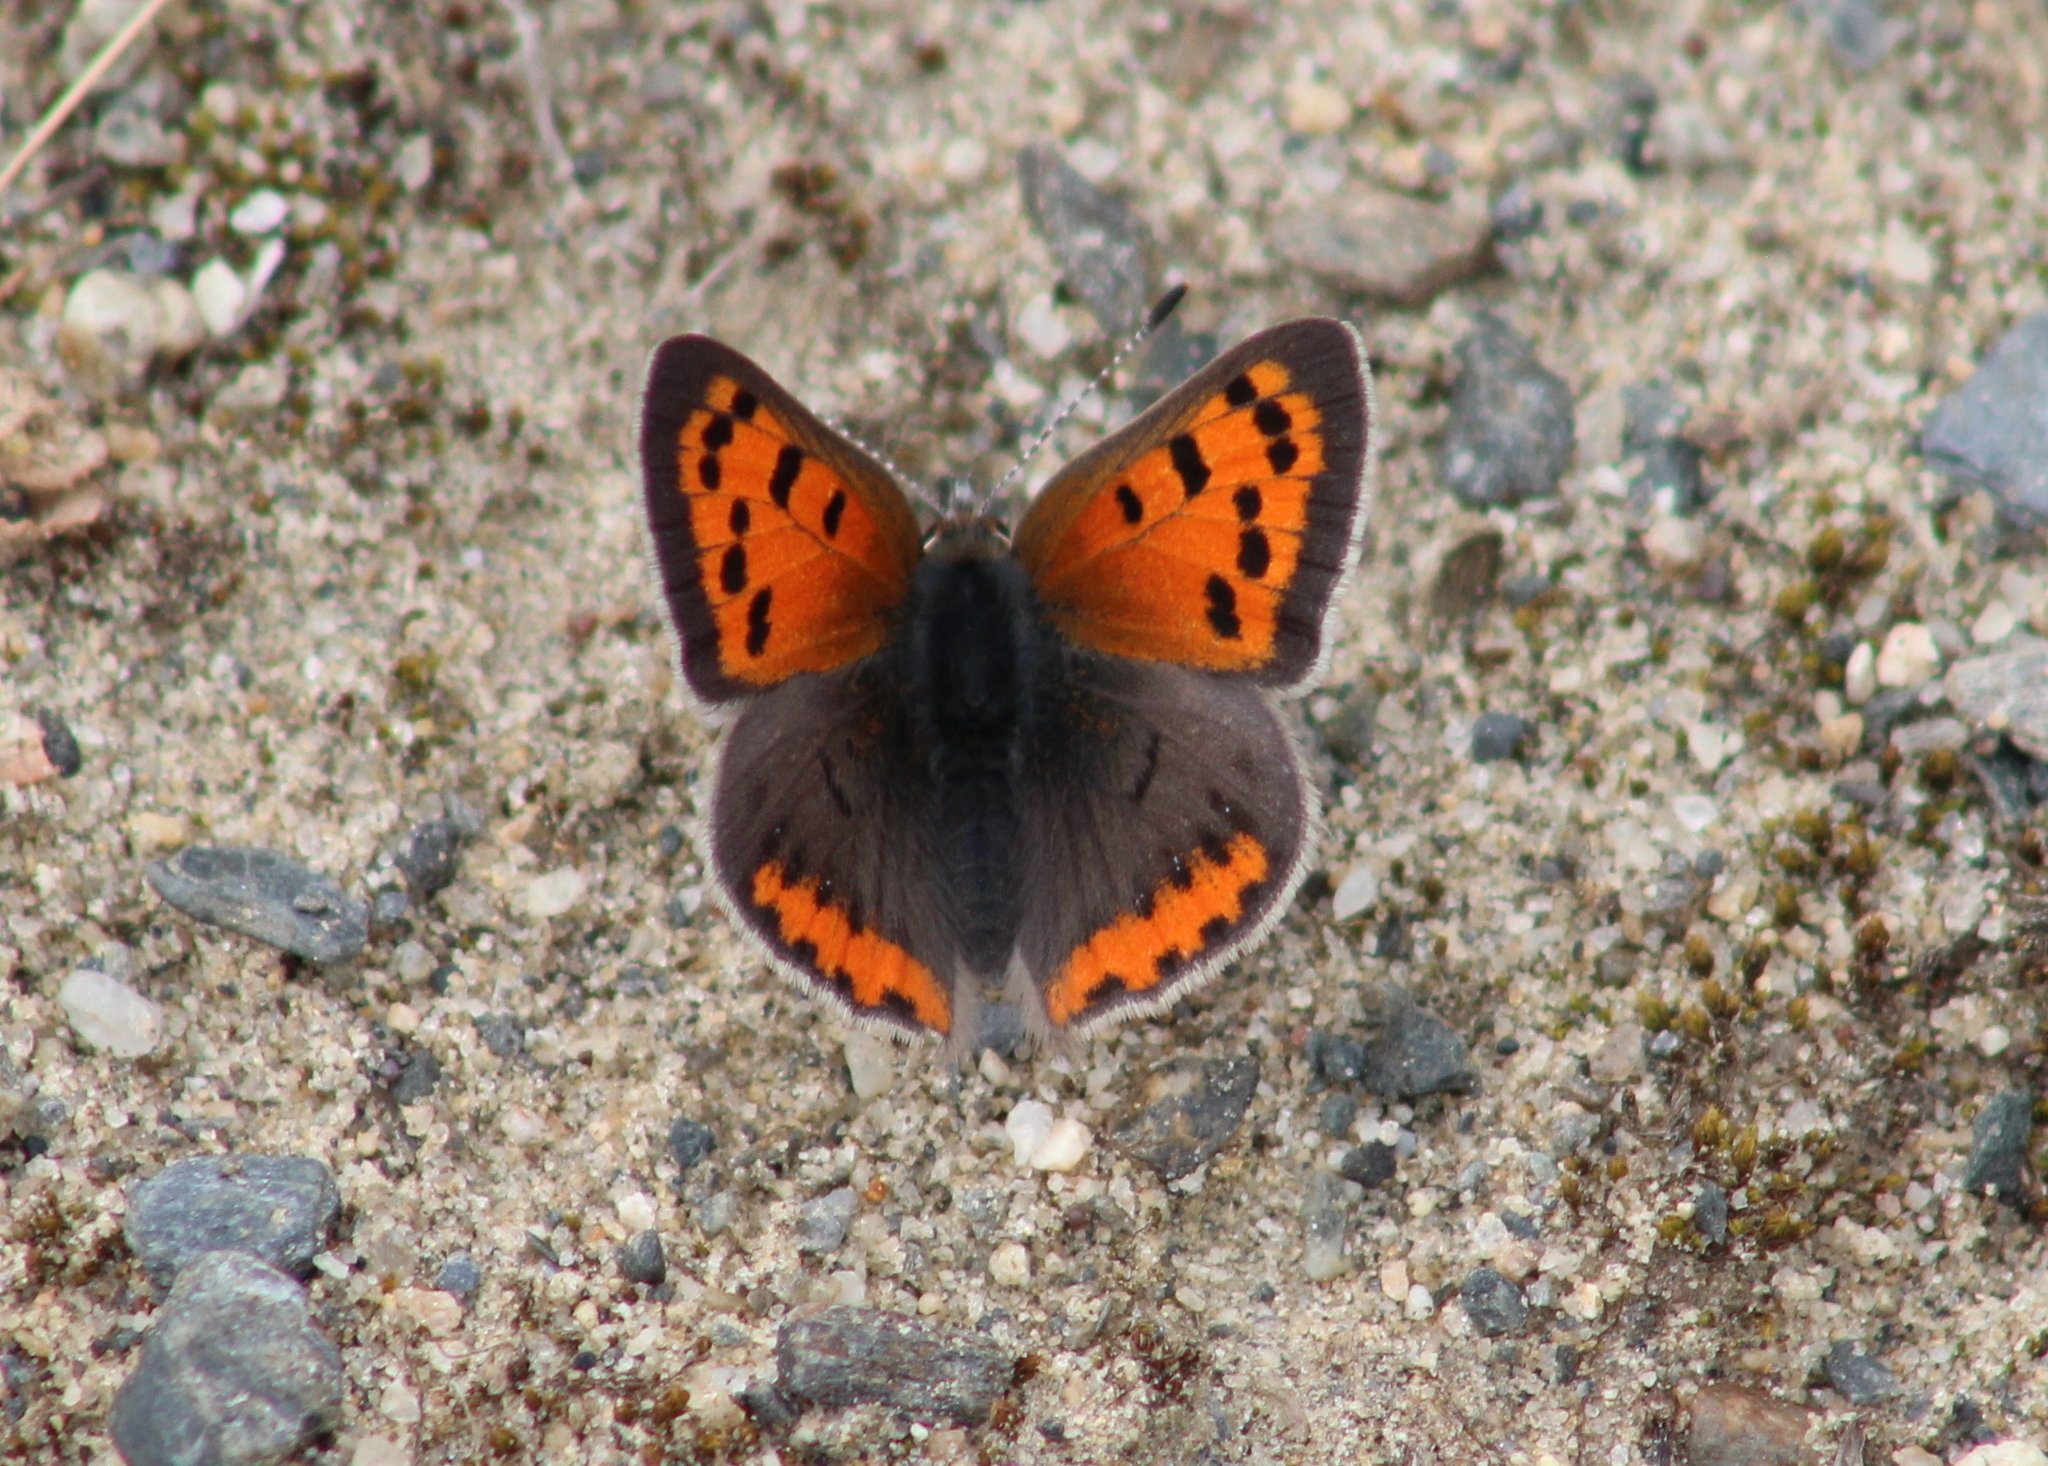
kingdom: Animalia
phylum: Arthropoda
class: Insecta
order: Lepidoptera
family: Lycaenidae
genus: Lycaena
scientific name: Lycaena hypophlaeas
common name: American copper
